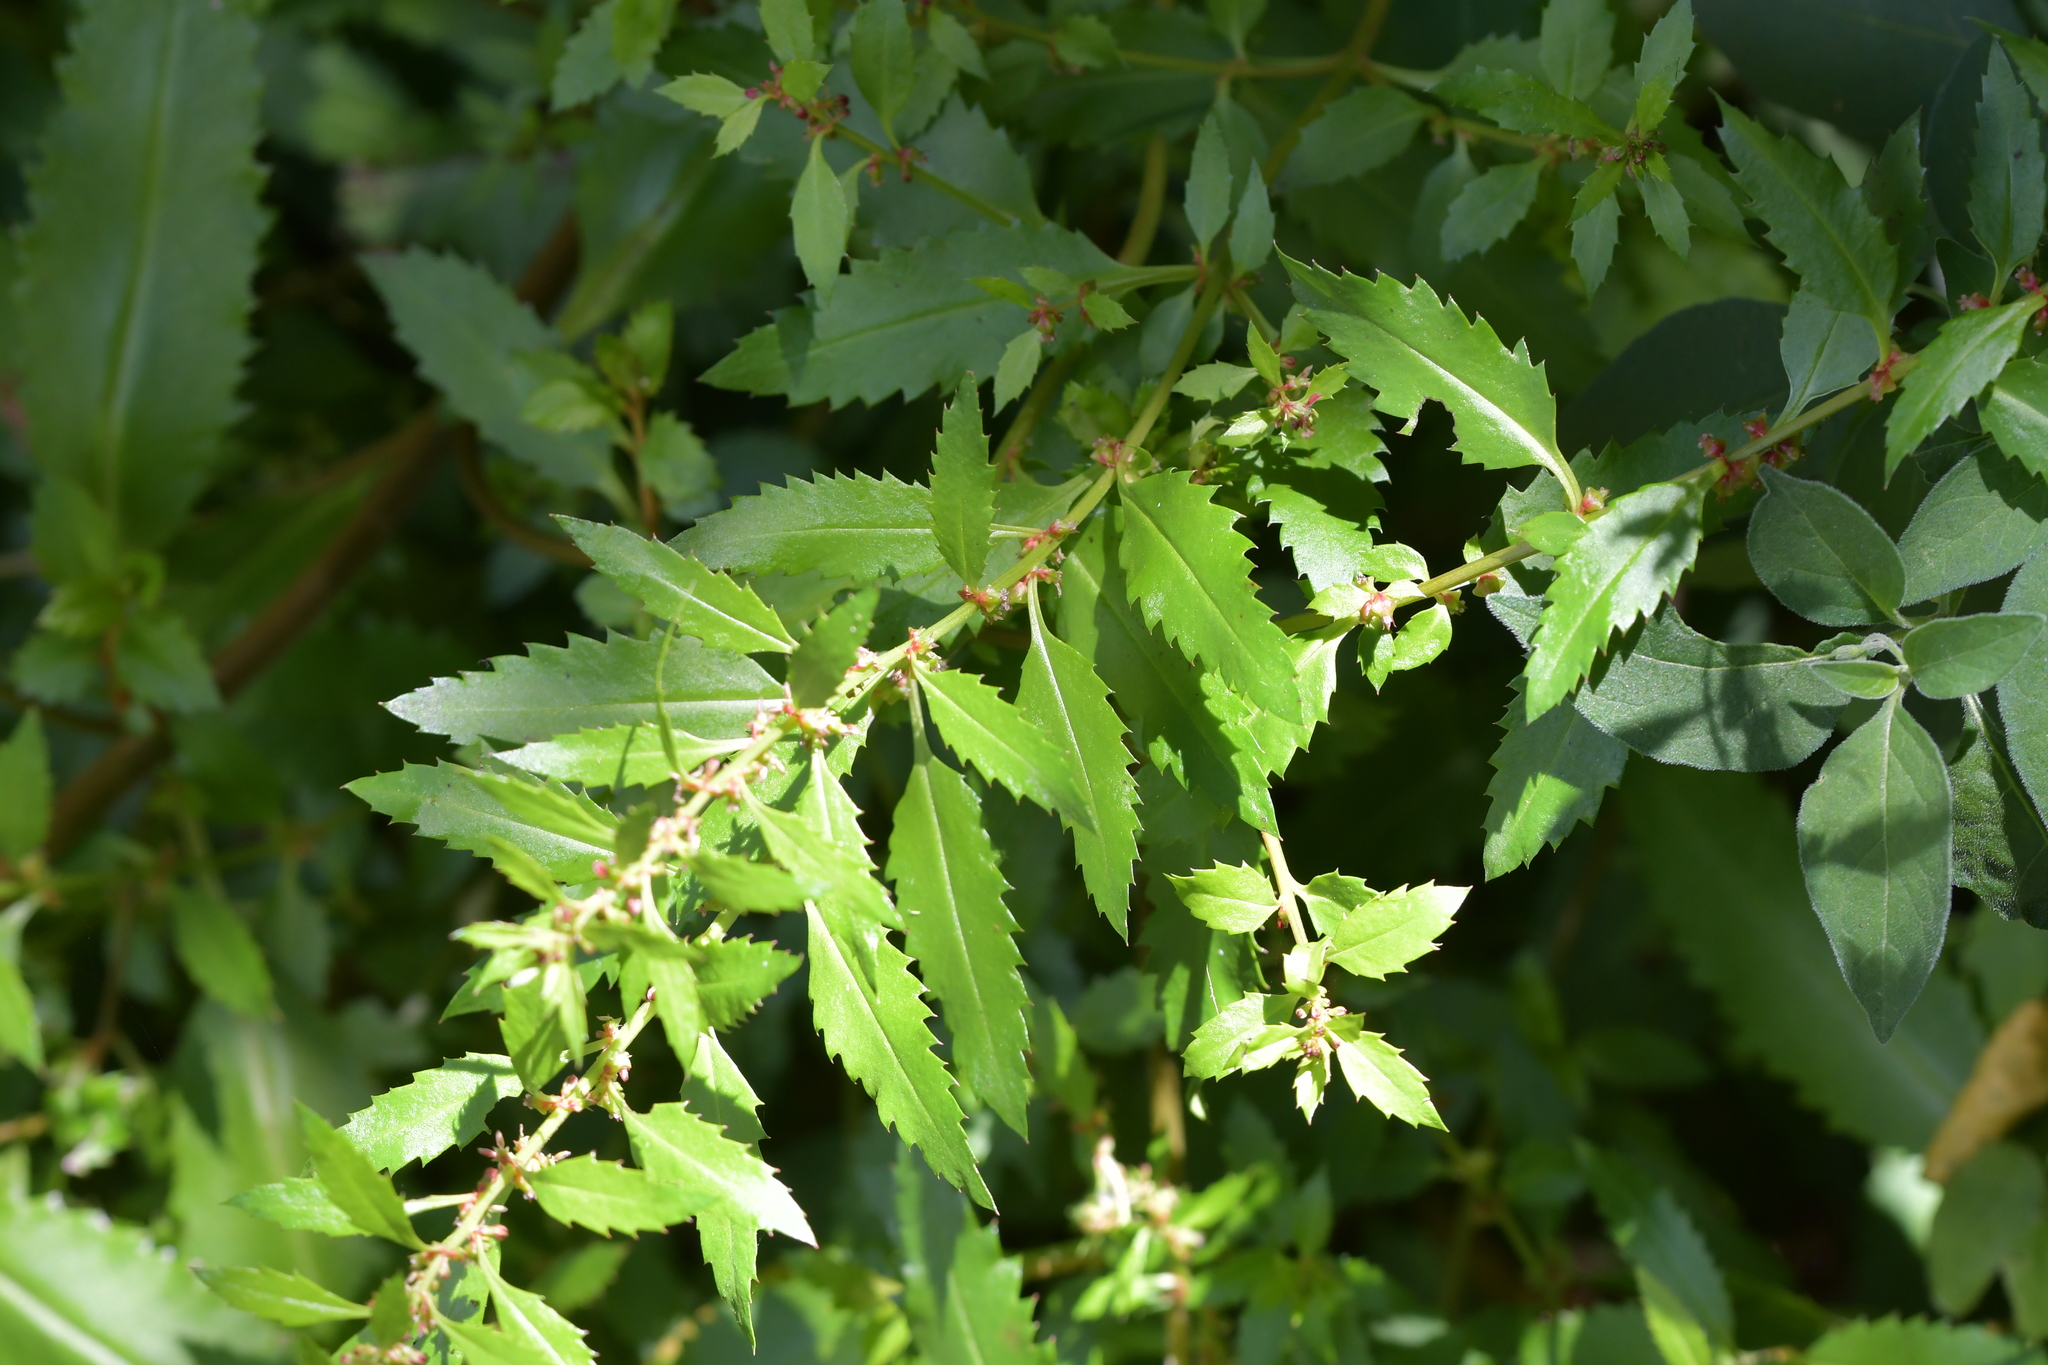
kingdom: Plantae
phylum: Tracheophyta
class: Magnoliopsida
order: Saxifragales
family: Haloragaceae
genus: Haloragis
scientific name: Haloragis erecta
